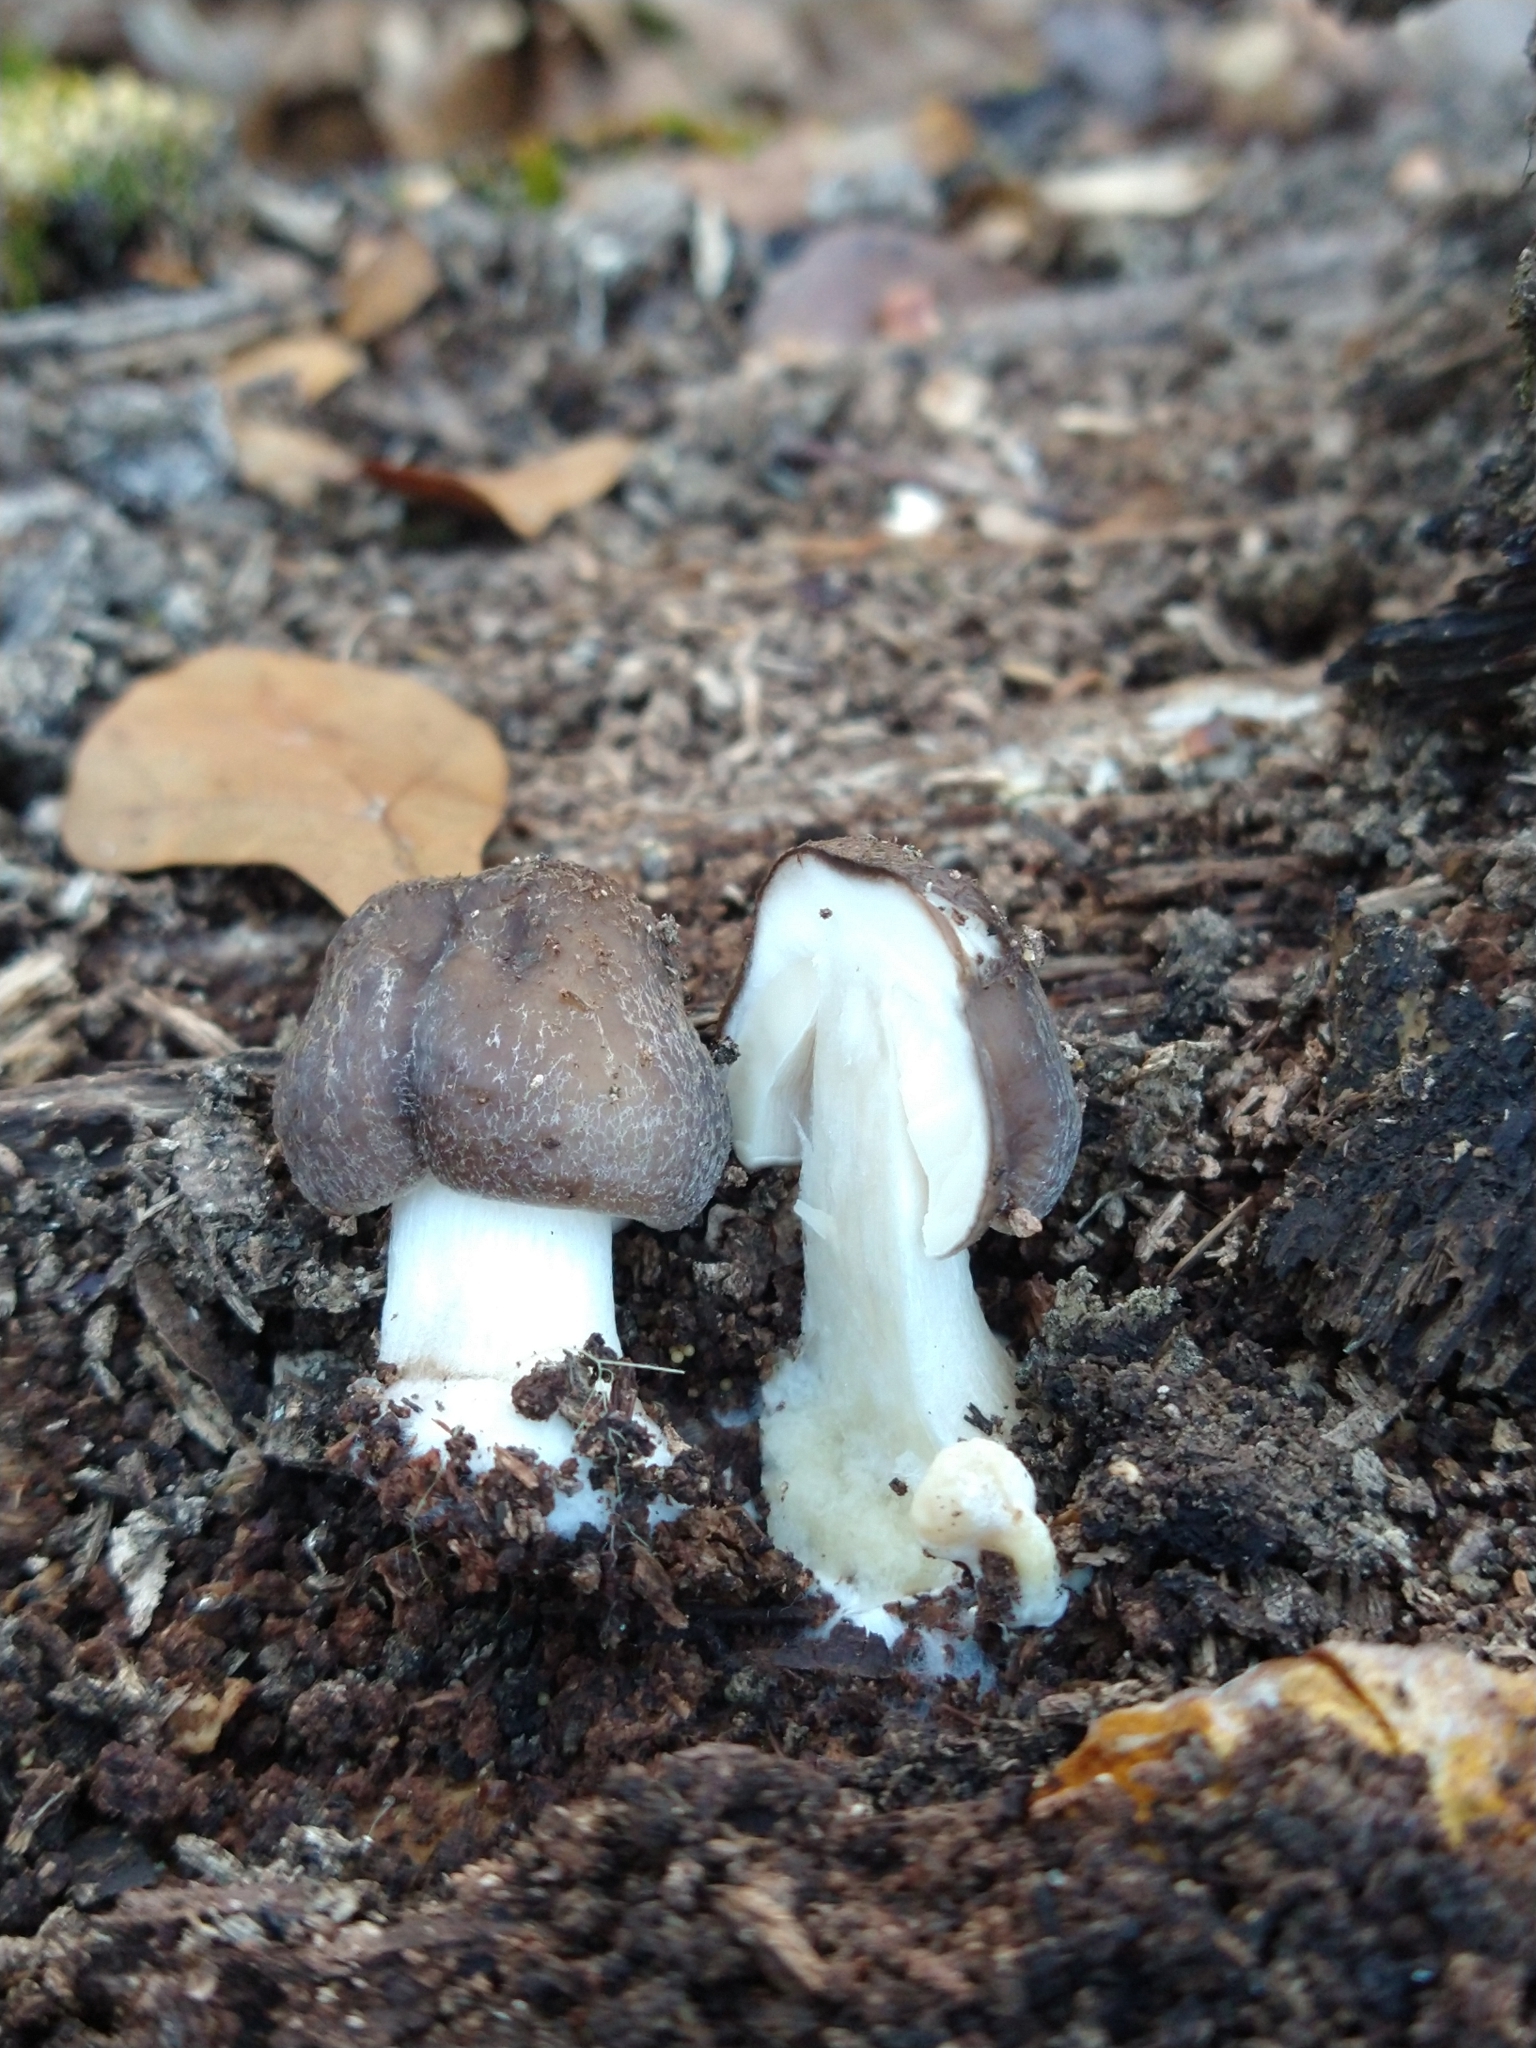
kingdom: Fungi
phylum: Basidiomycota
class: Agaricomycetes
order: Agaricales
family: Pluteaceae
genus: Pluteus
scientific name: Pluteus cervinus
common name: Deer shield
